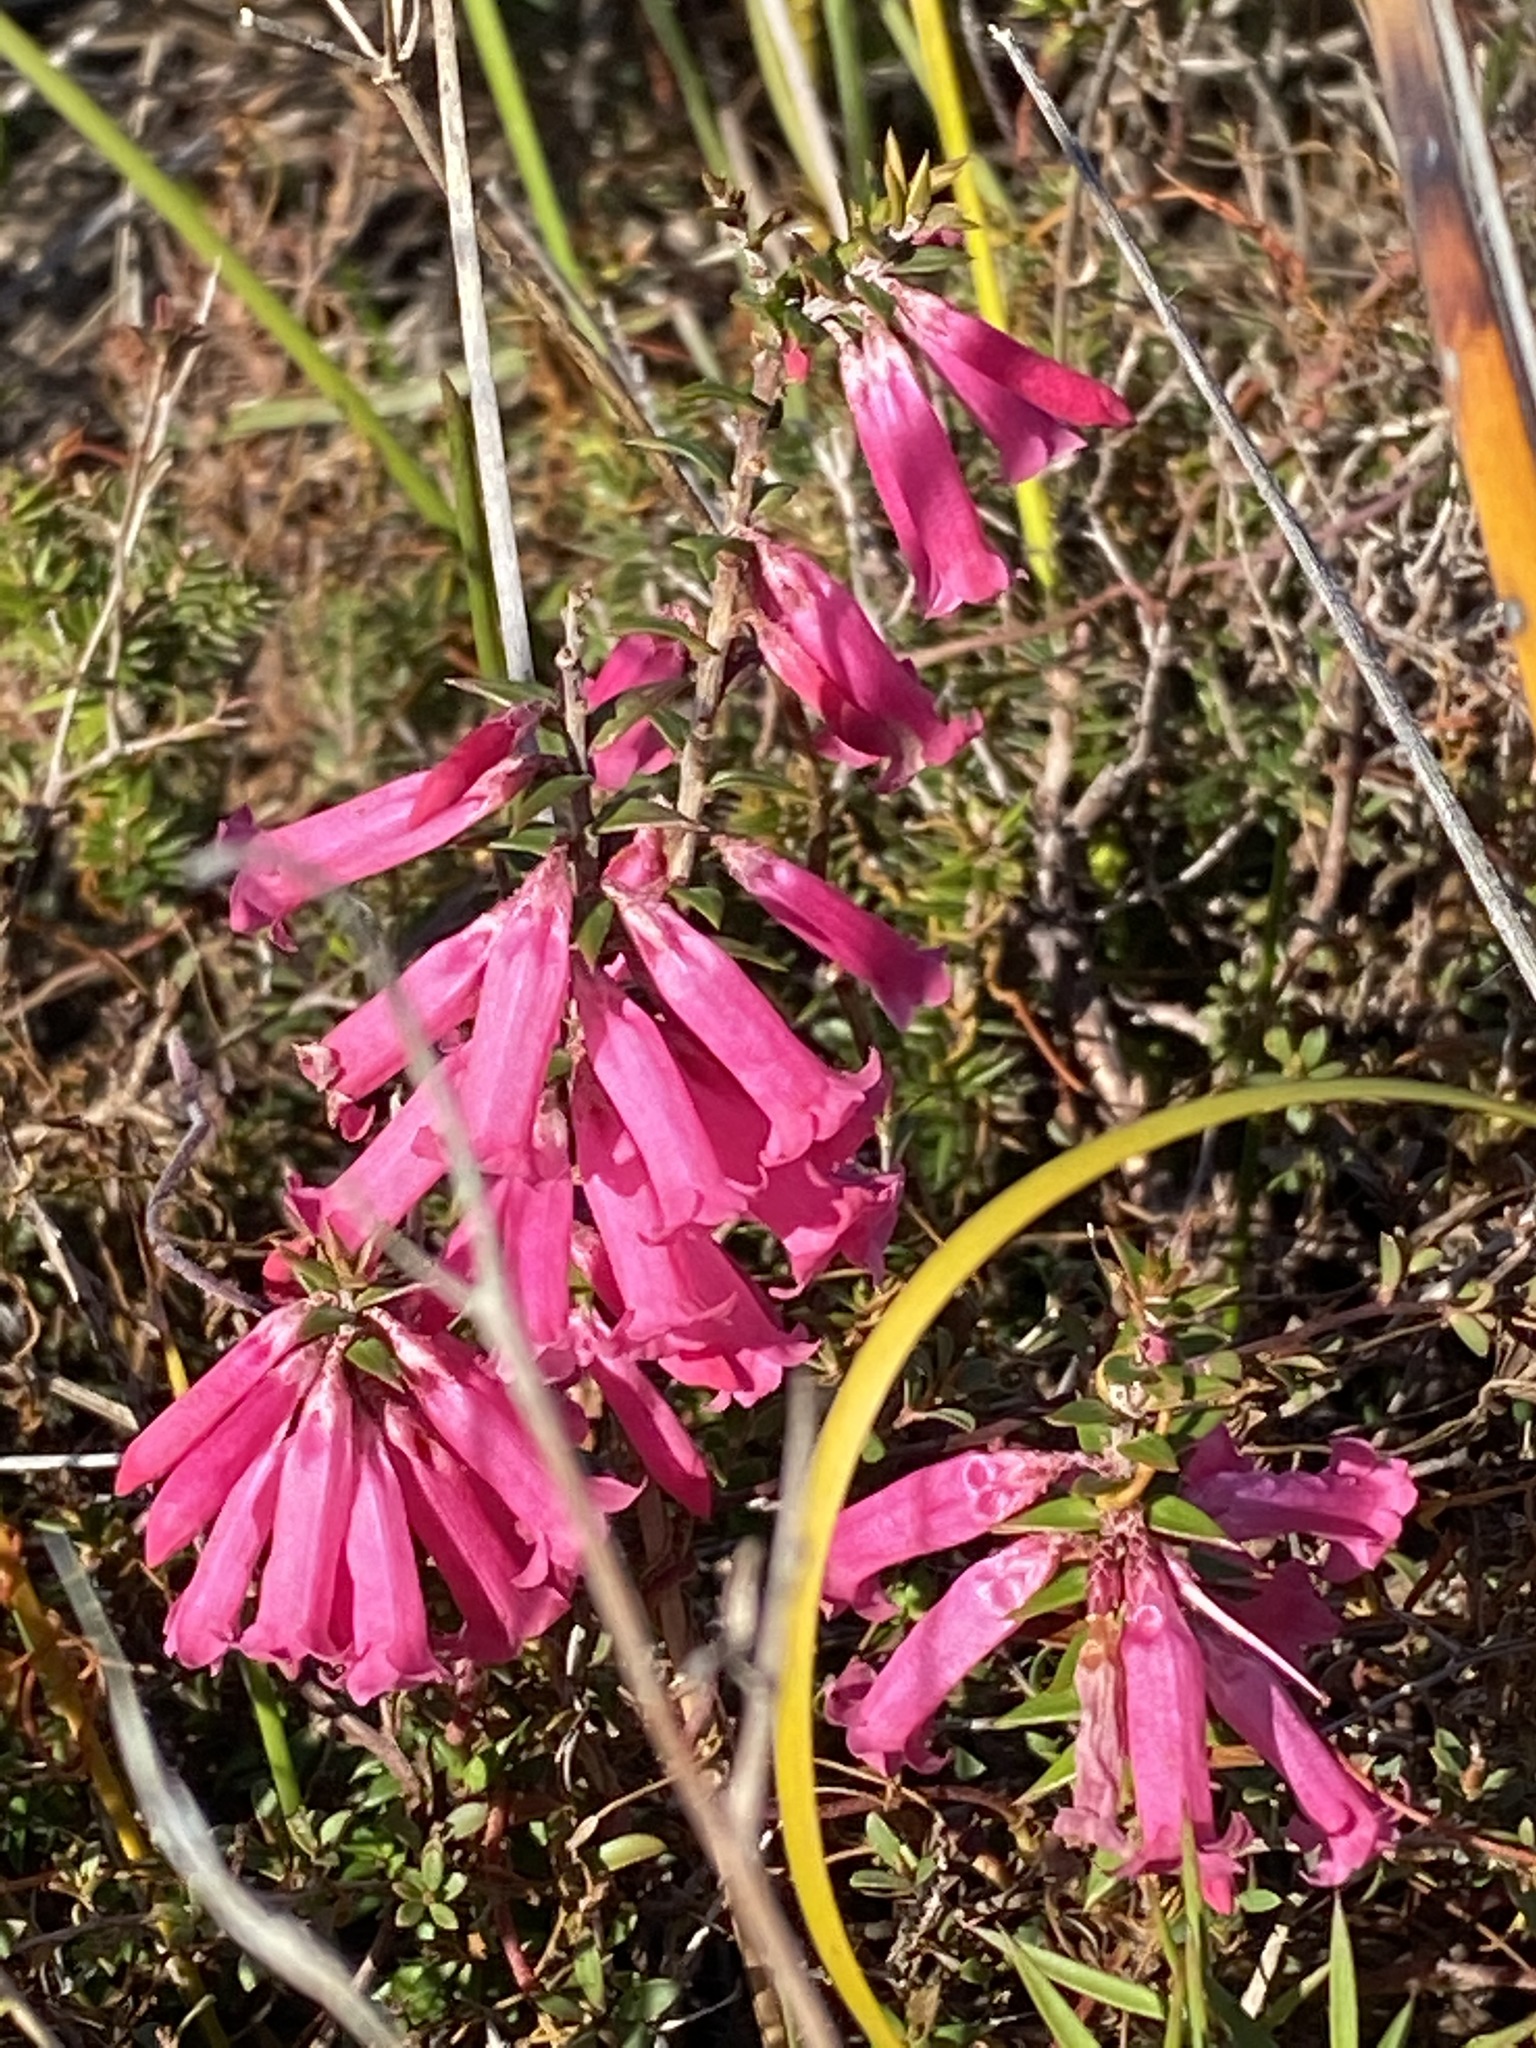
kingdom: Plantae
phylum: Tracheophyta
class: Magnoliopsida
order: Ericales
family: Ericaceae
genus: Epacris
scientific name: Epacris impressa
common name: Common-heath
